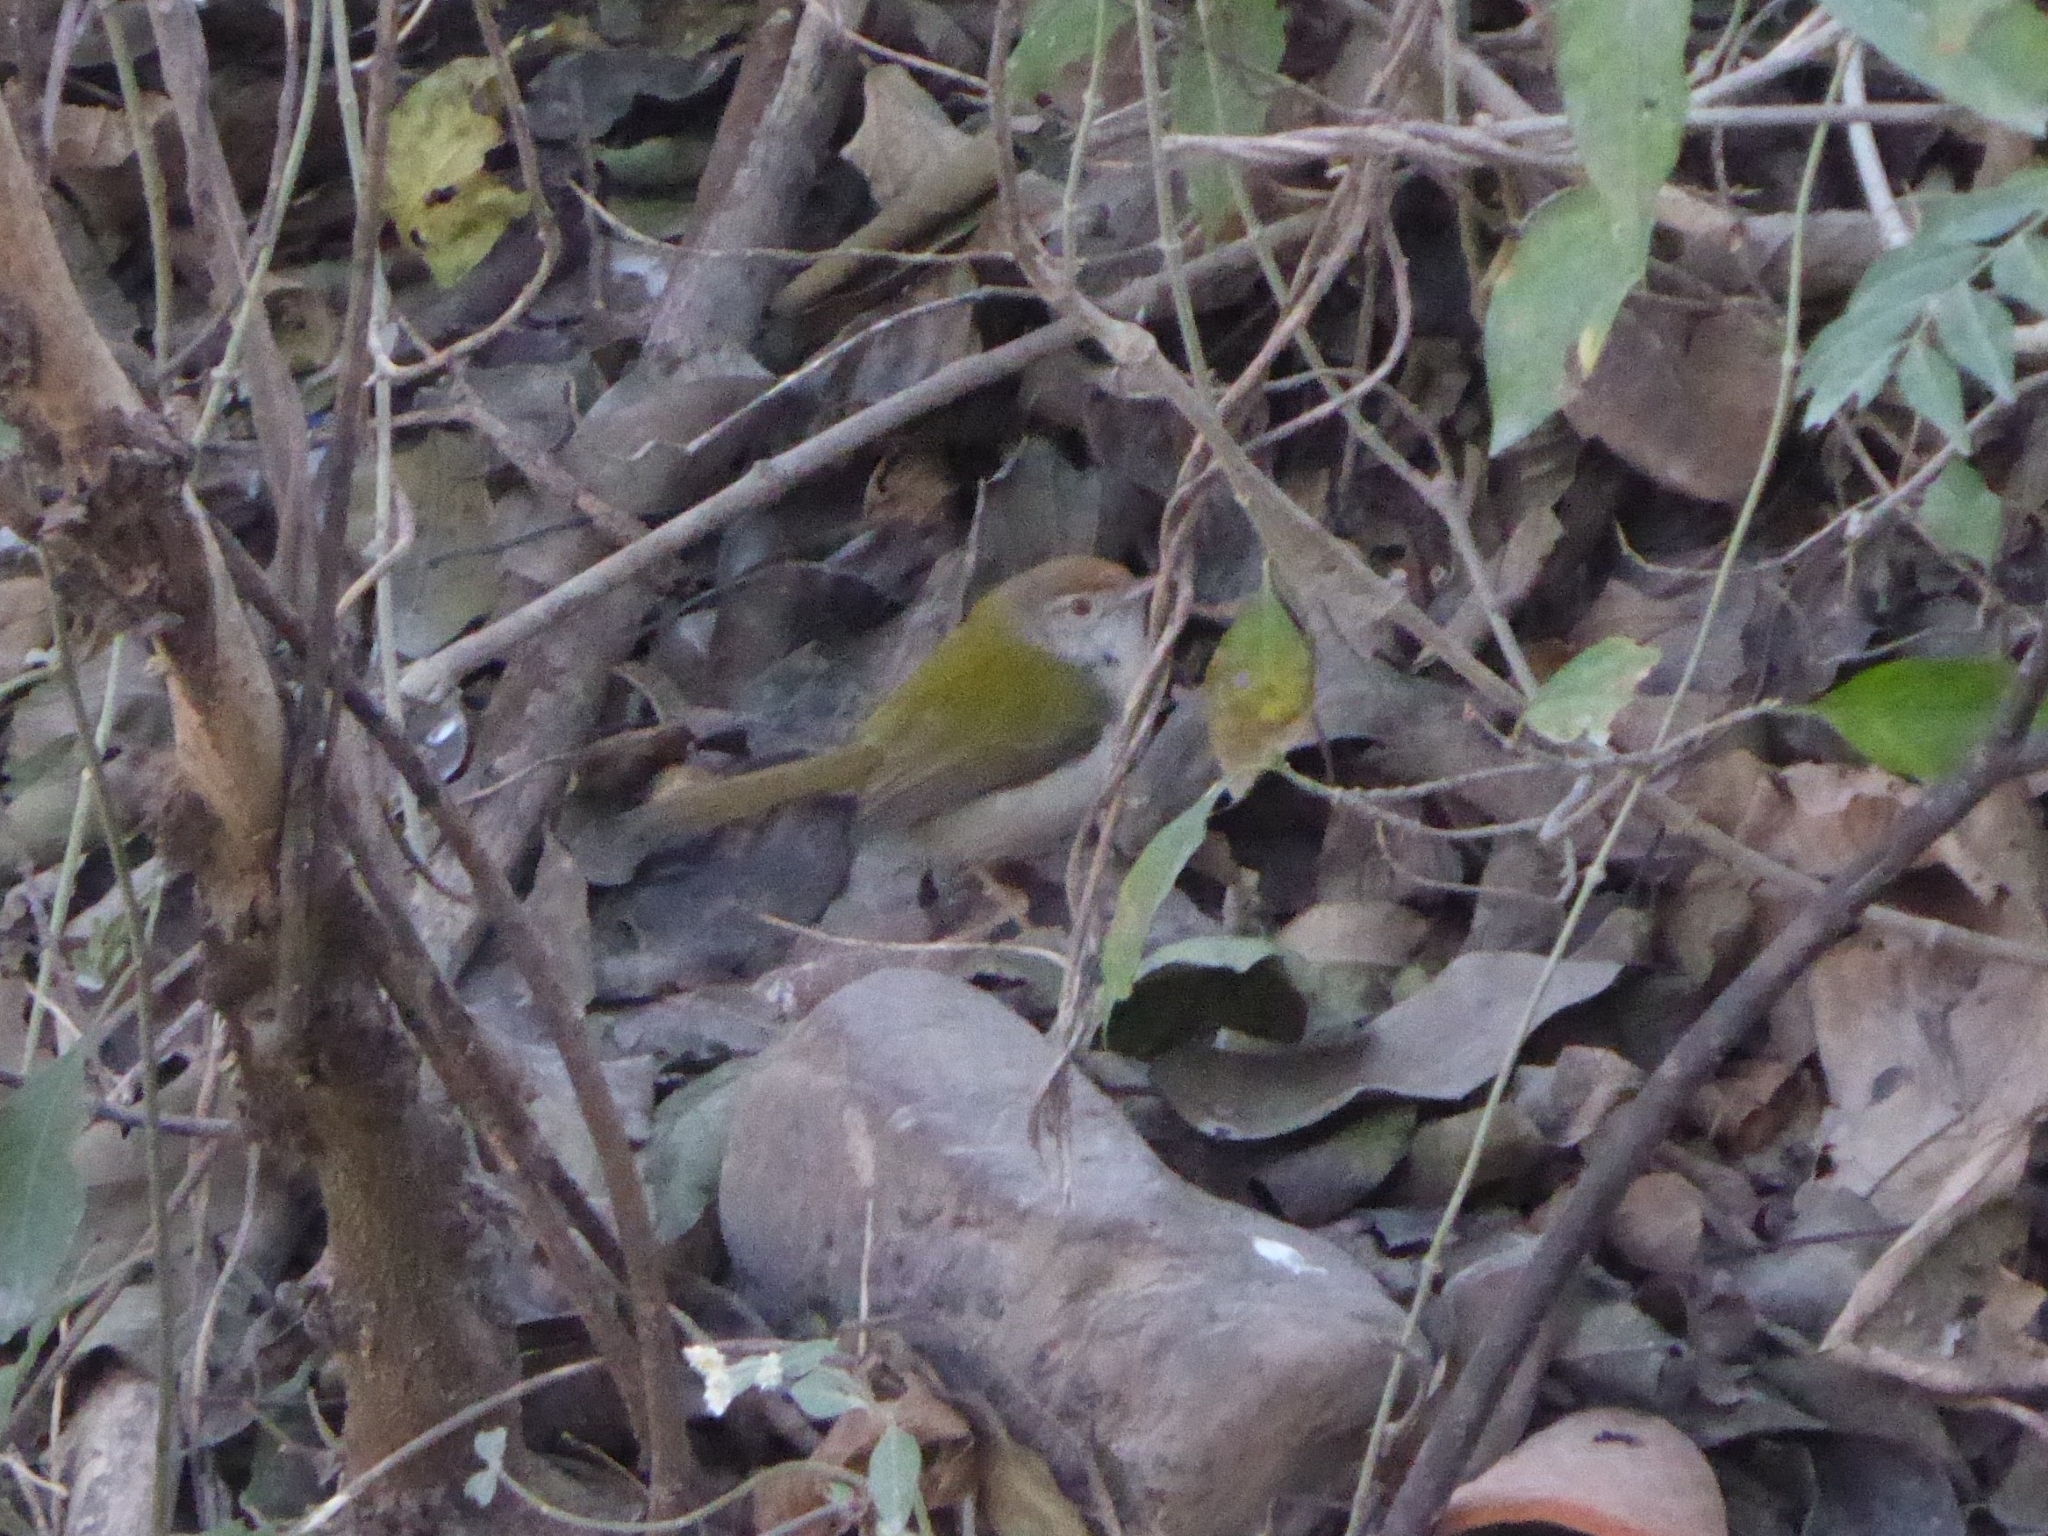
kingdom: Animalia
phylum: Chordata
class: Aves
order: Passeriformes
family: Cisticolidae
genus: Orthotomus
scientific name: Orthotomus sutorius
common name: Common tailorbird
